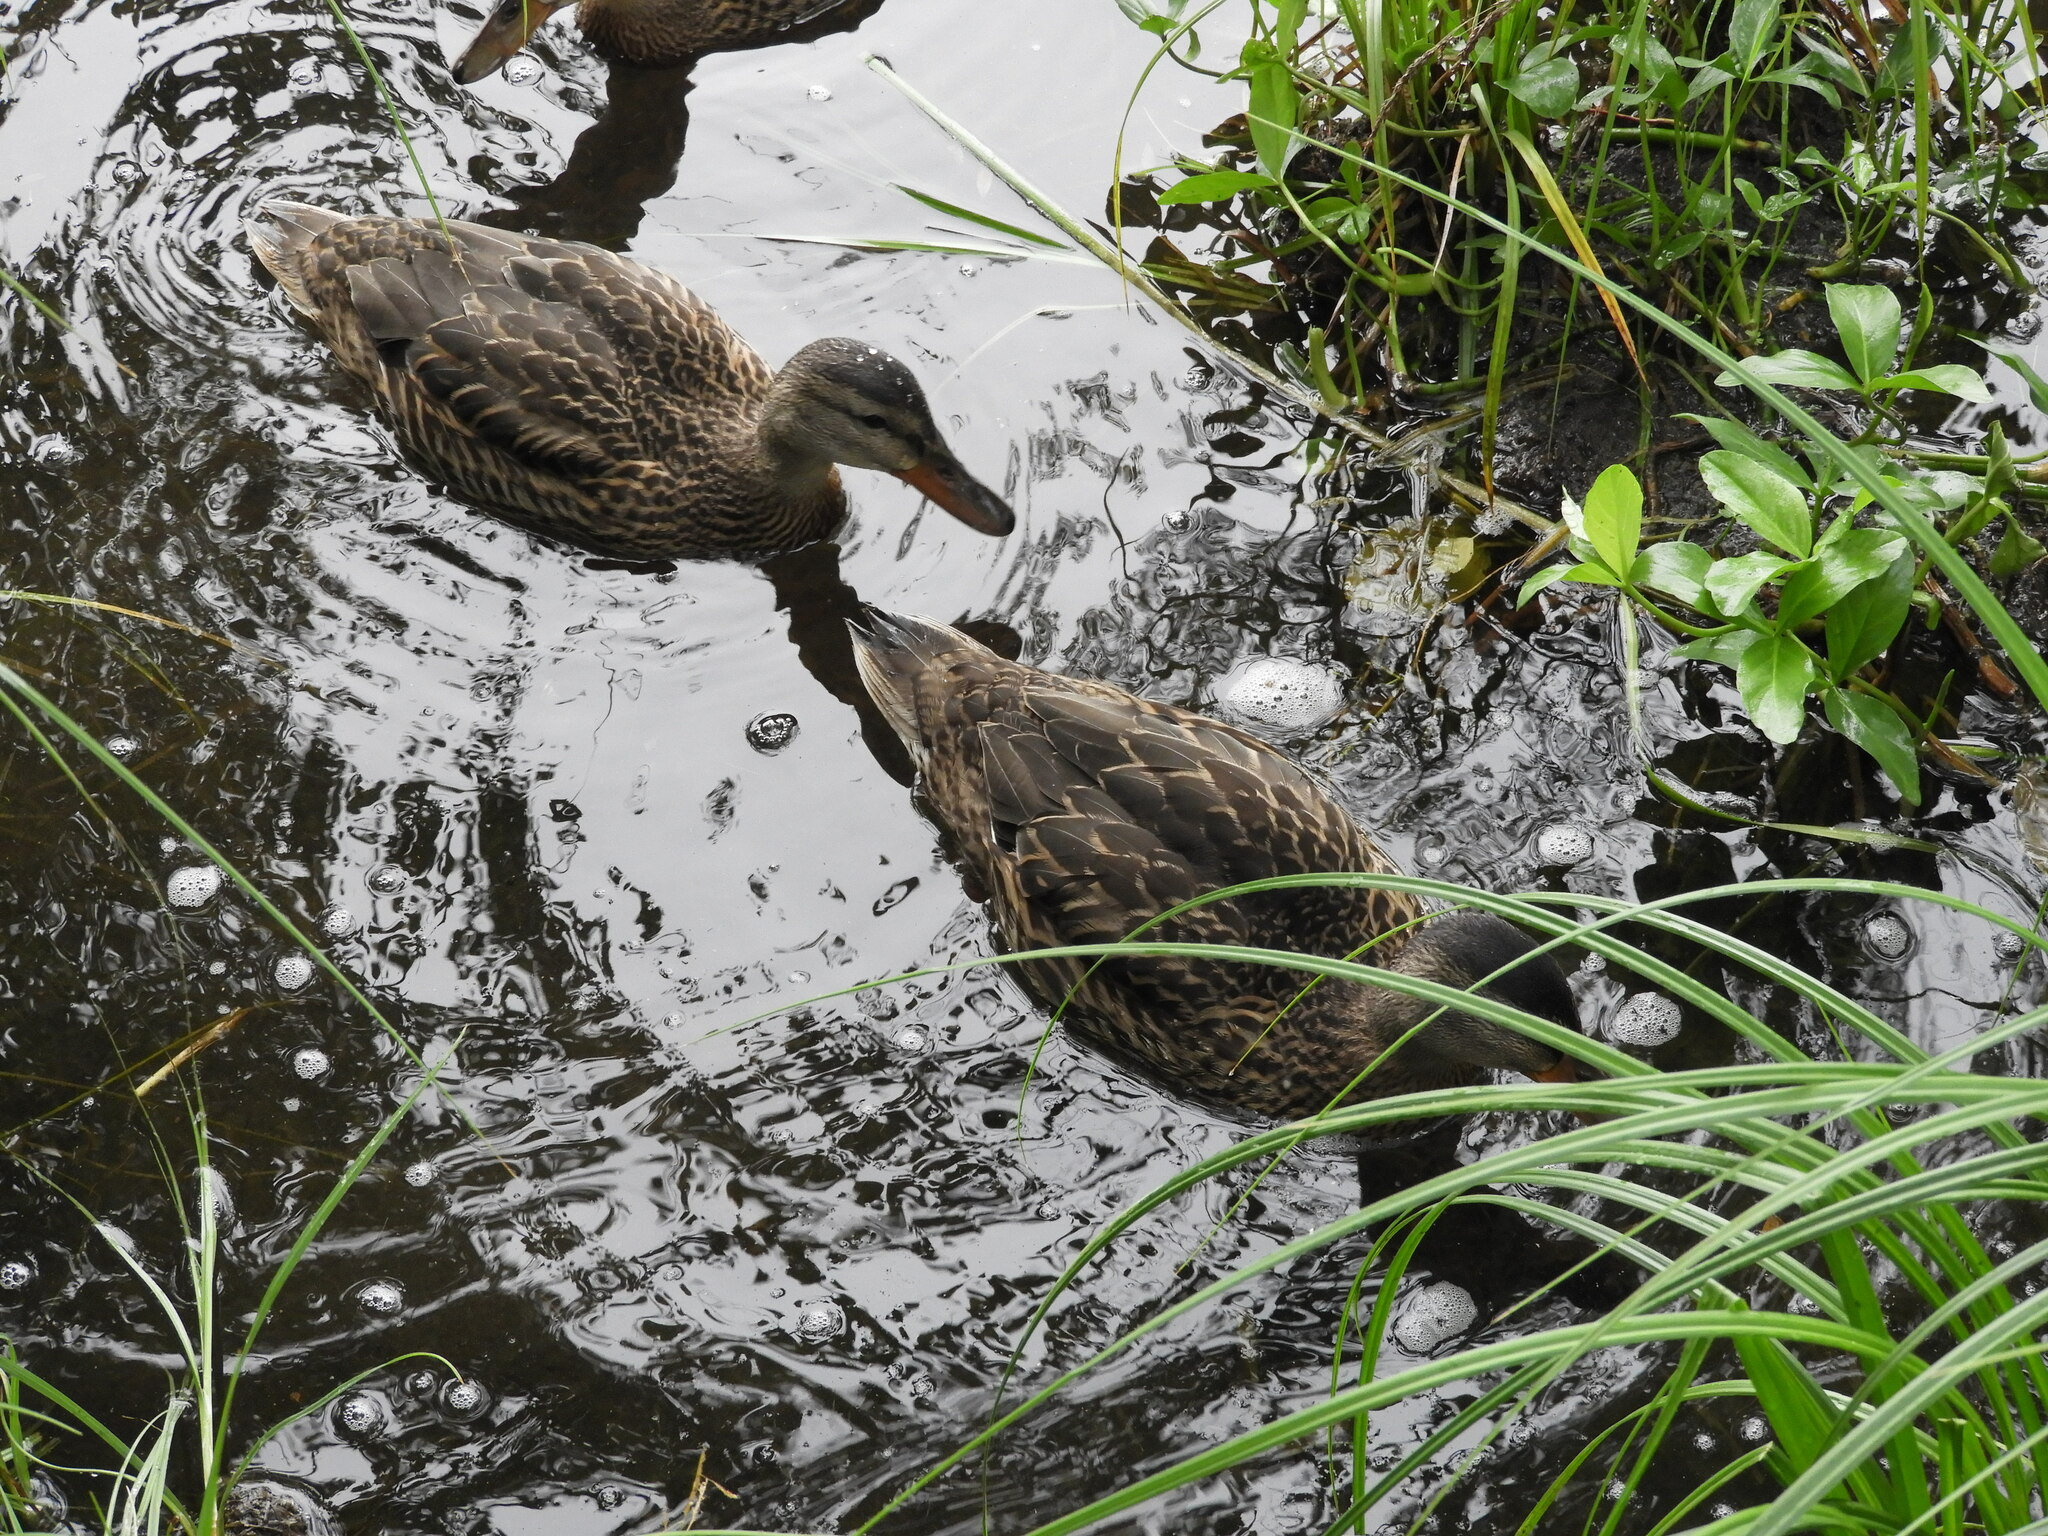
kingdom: Animalia
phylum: Chordata
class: Aves
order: Anseriformes
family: Anatidae
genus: Anas
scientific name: Anas platyrhynchos
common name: Mallard
